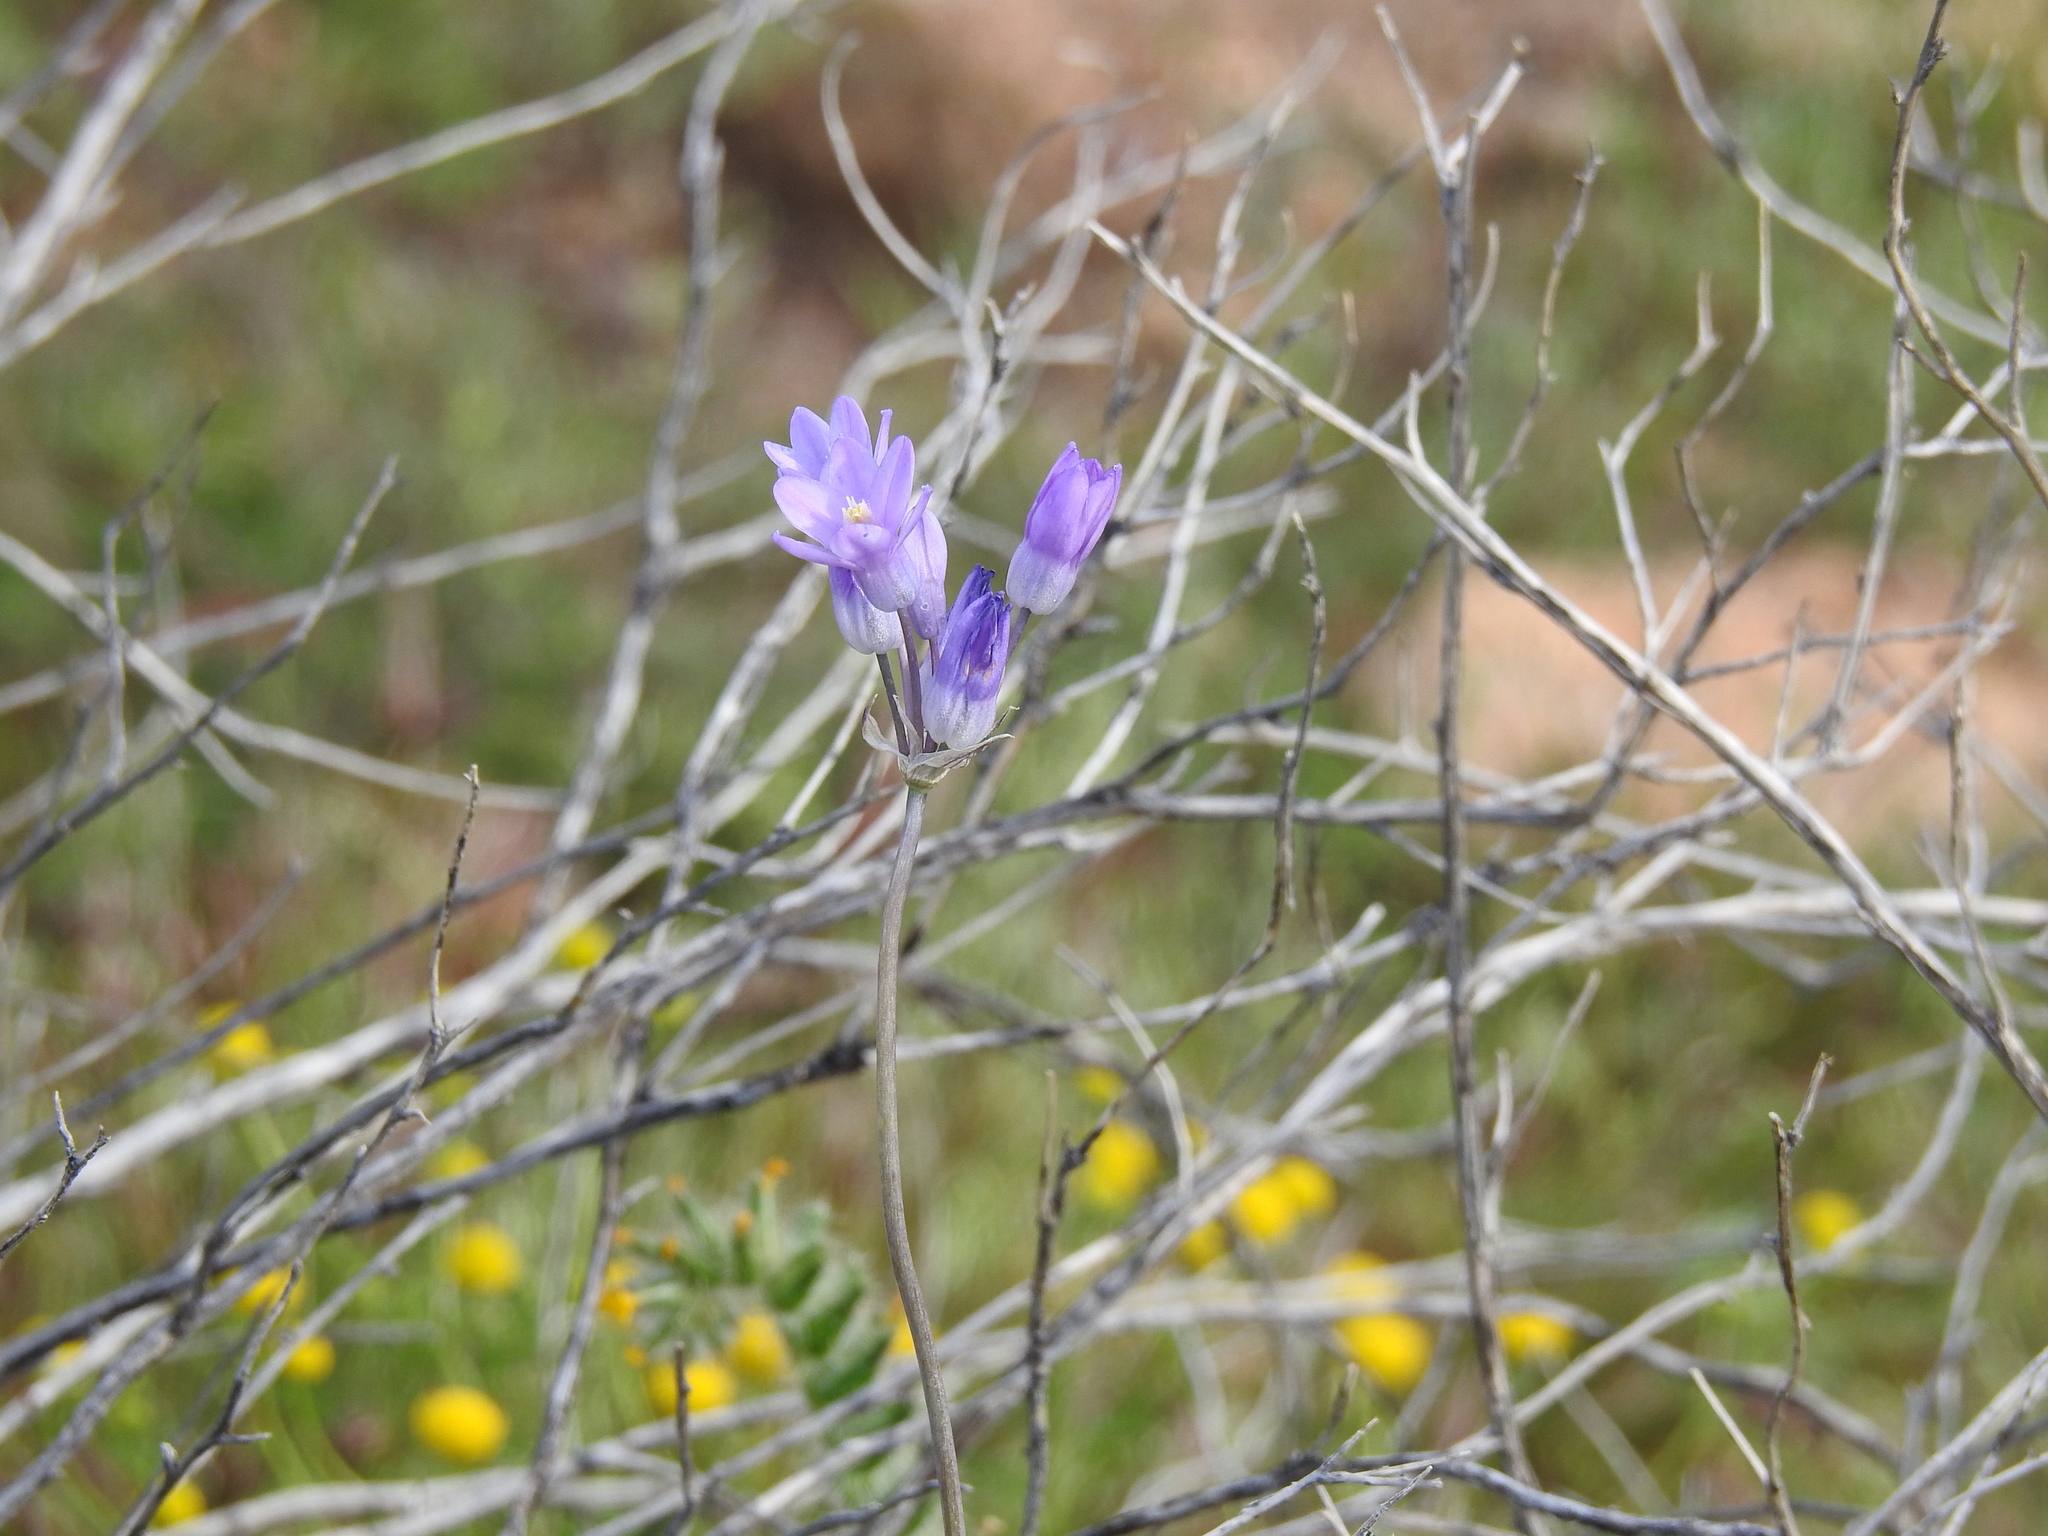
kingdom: Plantae
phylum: Tracheophyta
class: Liliopsida
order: Asparagales
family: Asparagaceae
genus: Dipterostemon
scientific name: Dipterostemon capitatus
